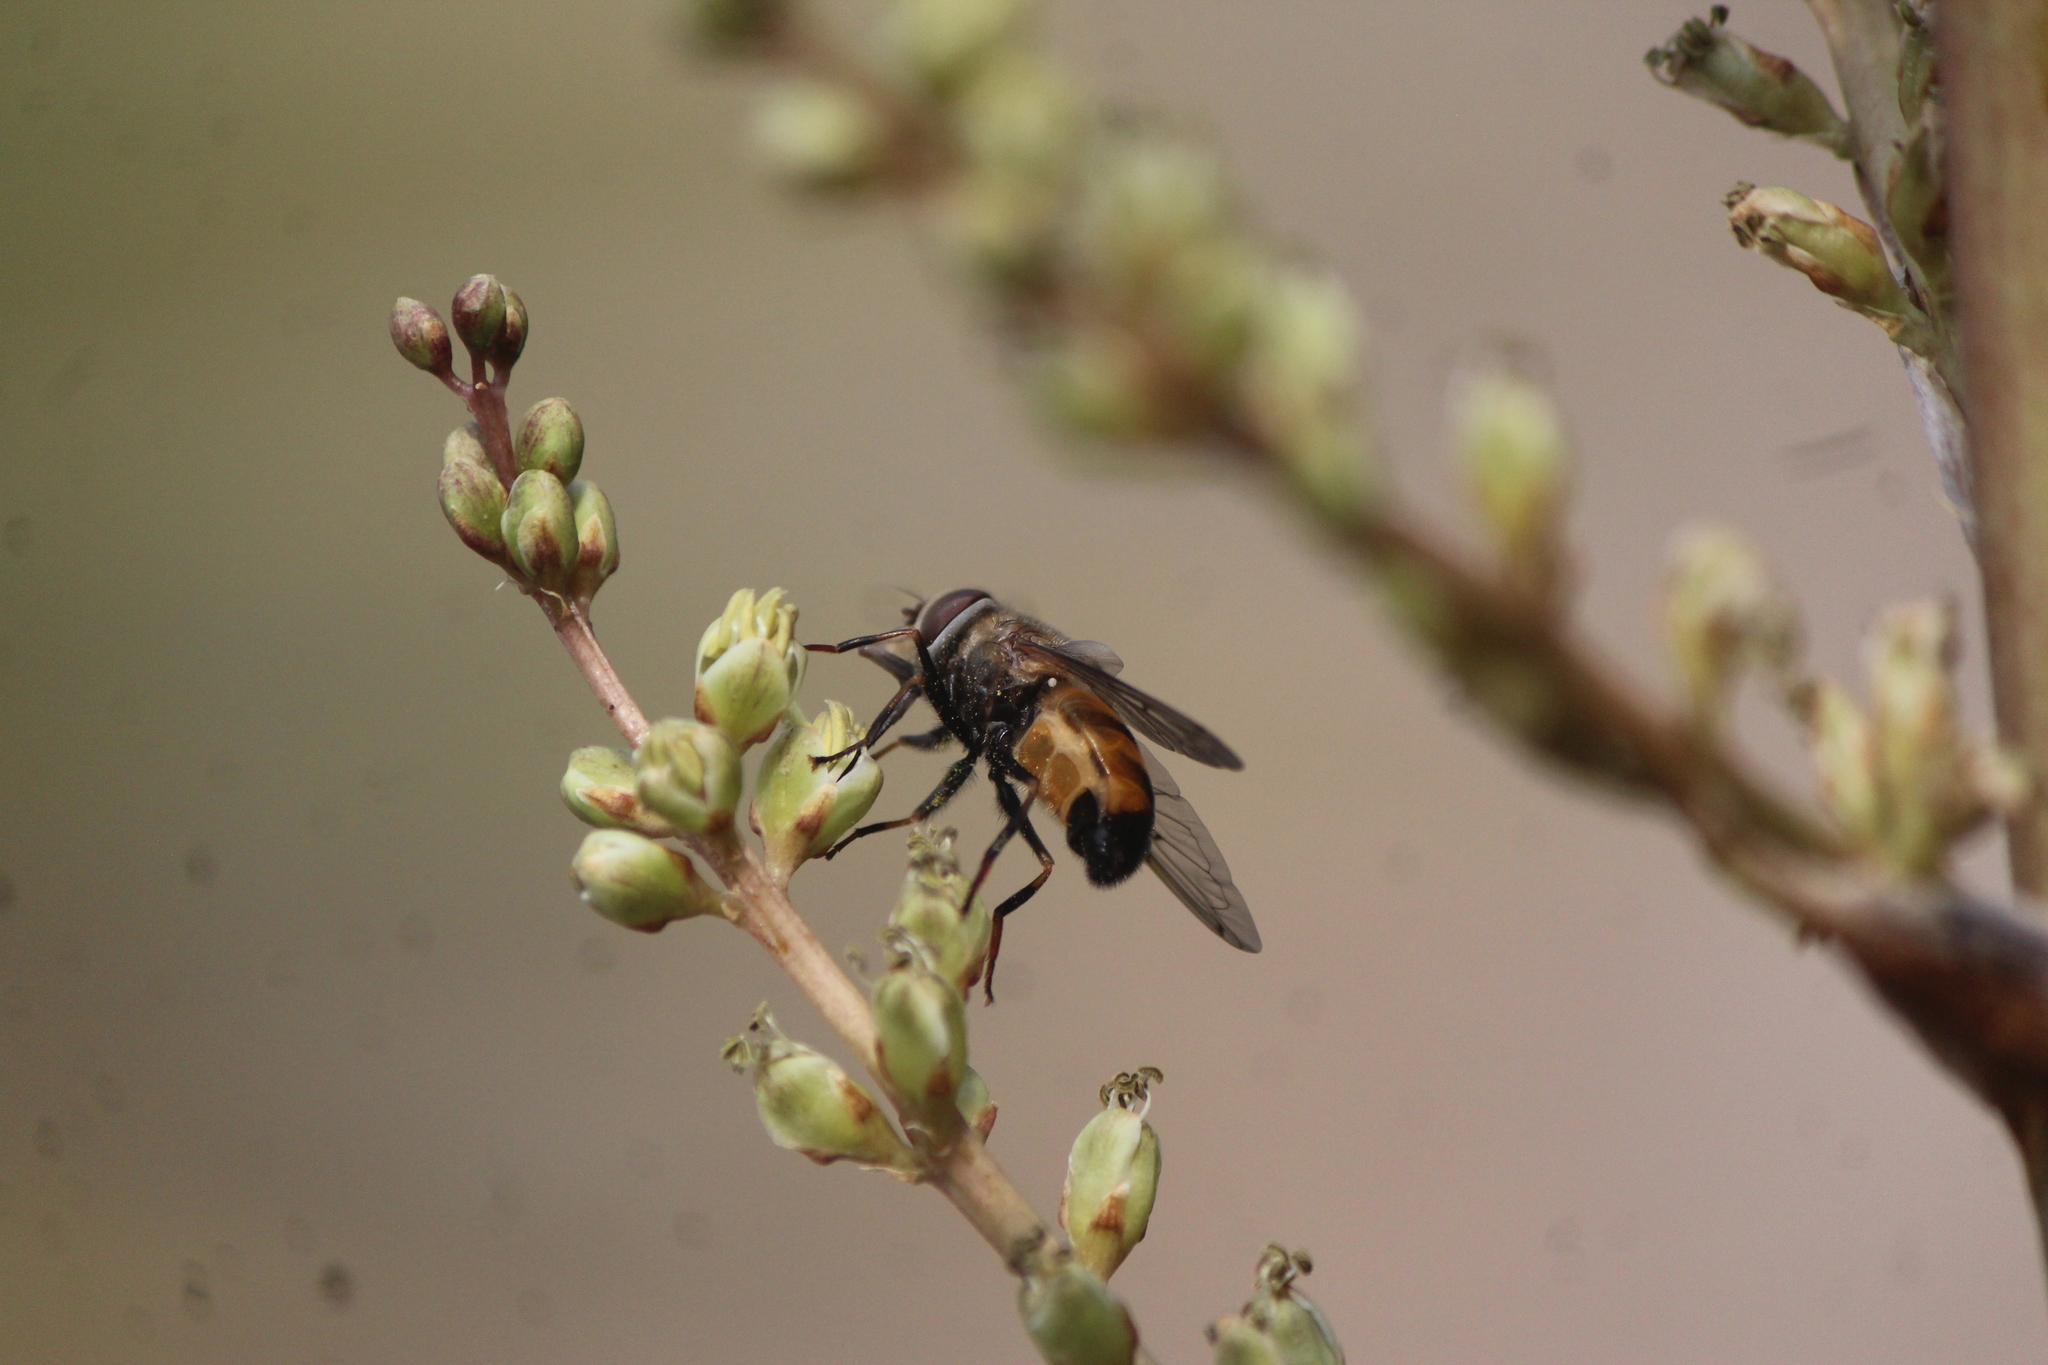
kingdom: Animalia
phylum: Arthropoda
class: Insecta
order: Diptera
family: Syrphidae
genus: Copestylum
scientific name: Copestylum haagii
